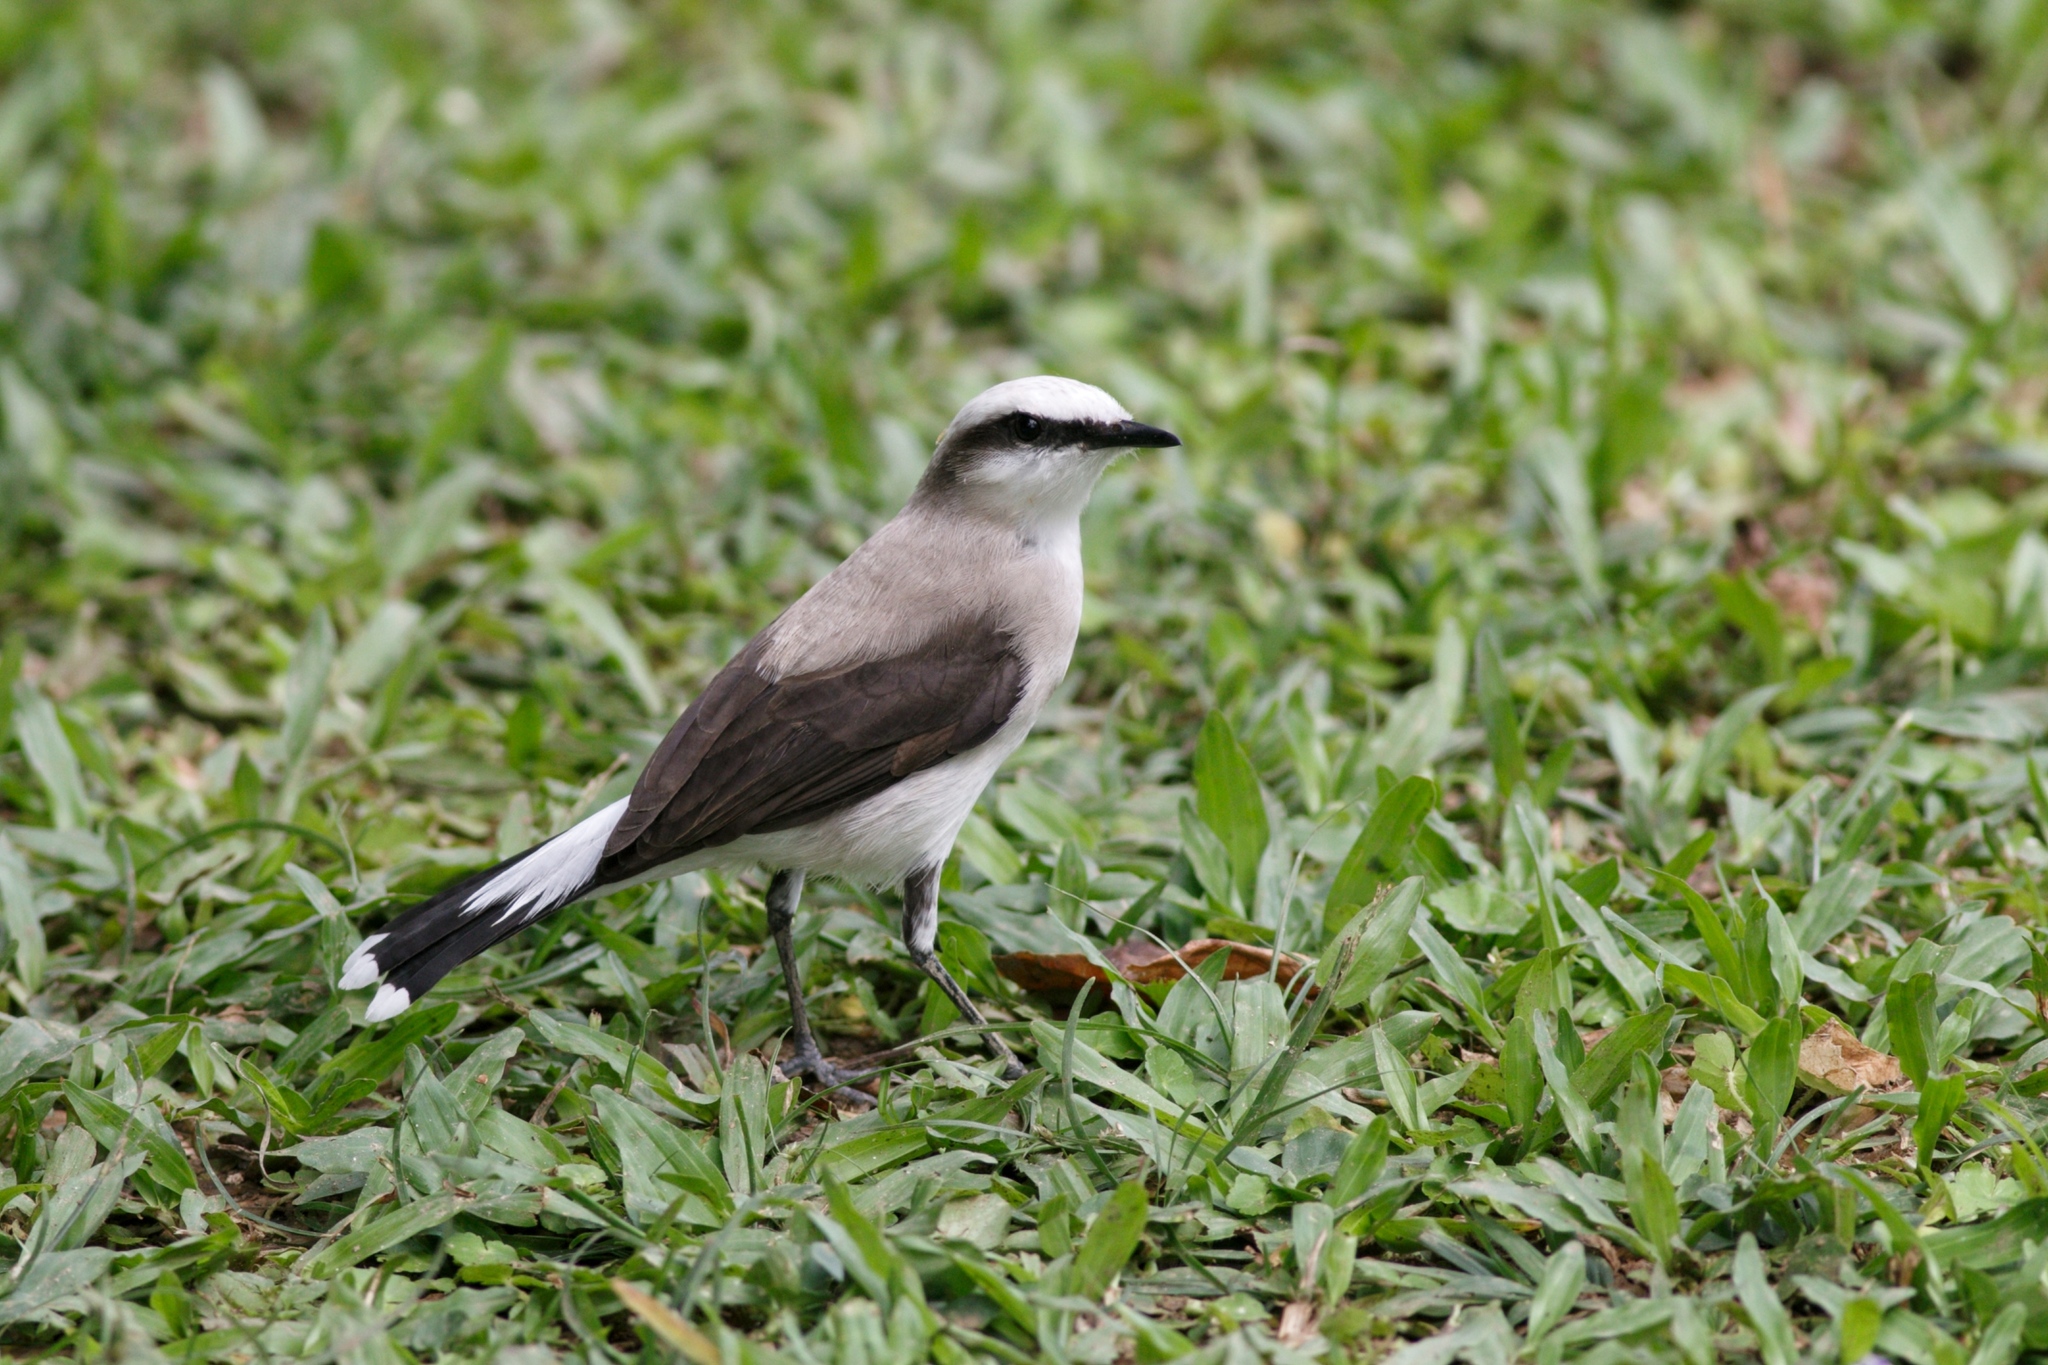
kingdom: Animalia
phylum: Chordata
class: Aves
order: Passeriformes
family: Tyrannidae
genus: Fluvicola
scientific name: Fluvicola nengeta
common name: Masked water tyrant
